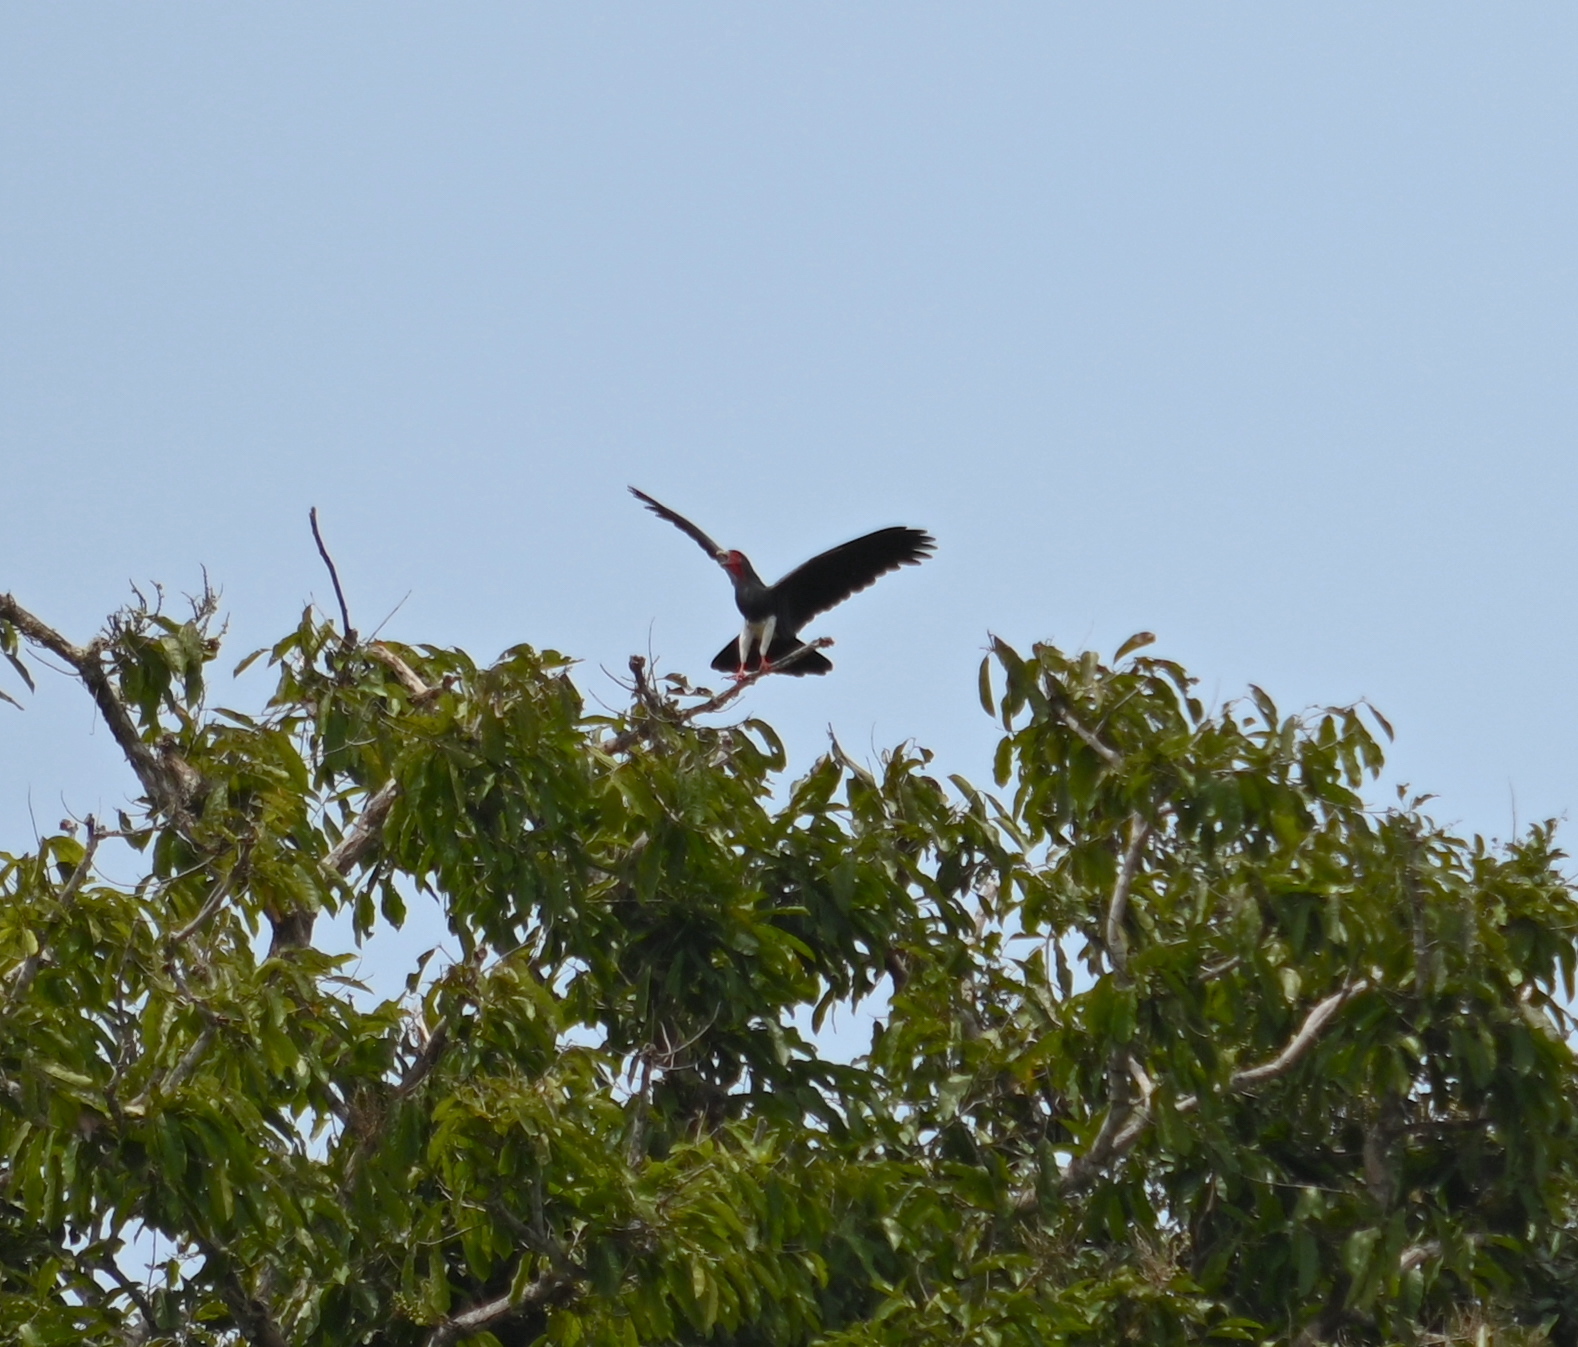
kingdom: Animalia
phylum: Chordata
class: Aves
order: Falconiformes
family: Falconidae
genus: Ibycter
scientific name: Ibycter americanus
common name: Red-throated caracara
